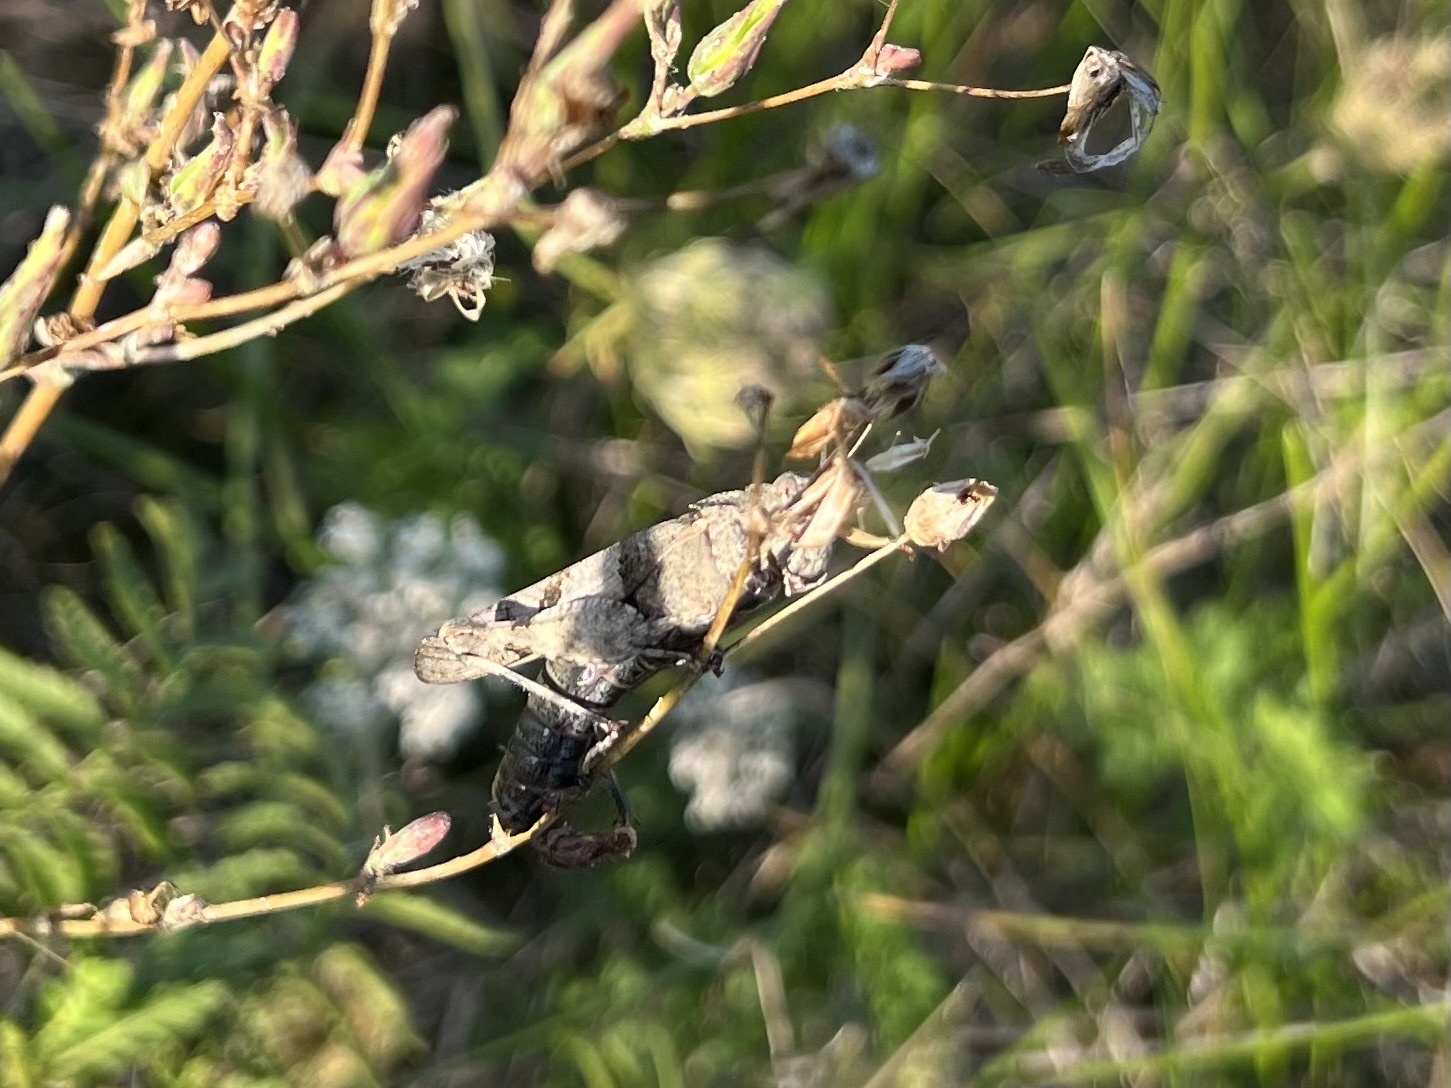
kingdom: Animalia
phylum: Arthropoda
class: Insecta
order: Orthoptera
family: Acrididae
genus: Oedipoda
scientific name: Oedipoda caerulescens
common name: Blue-winged grasshopper
